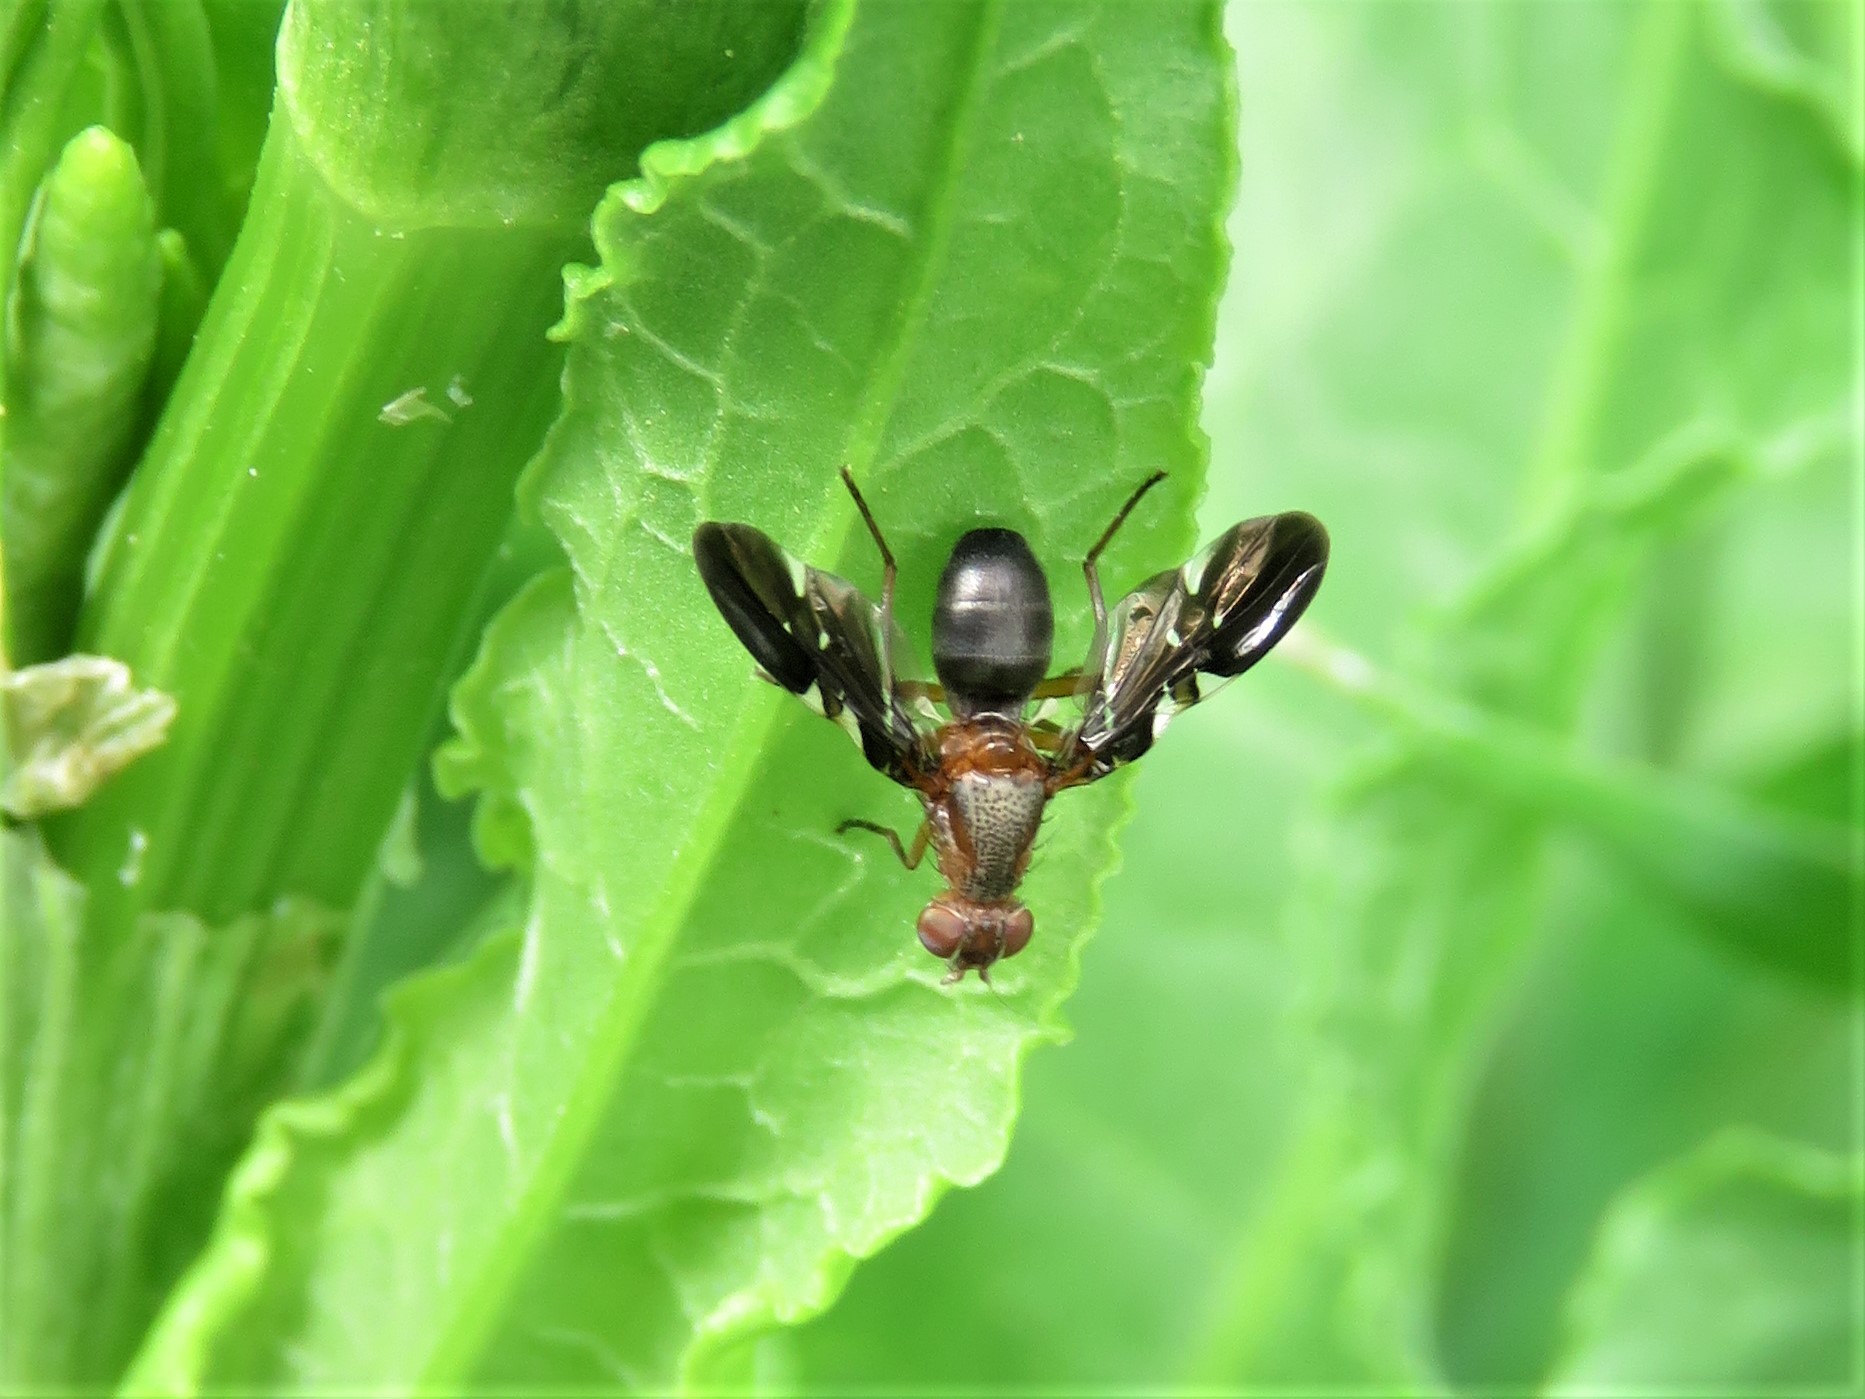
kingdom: Animalia
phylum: Arthropoda
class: Insecta
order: Diptera
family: Ulidiidae
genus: Delphinia
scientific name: Delphinia picta
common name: Common picture-winged fly
